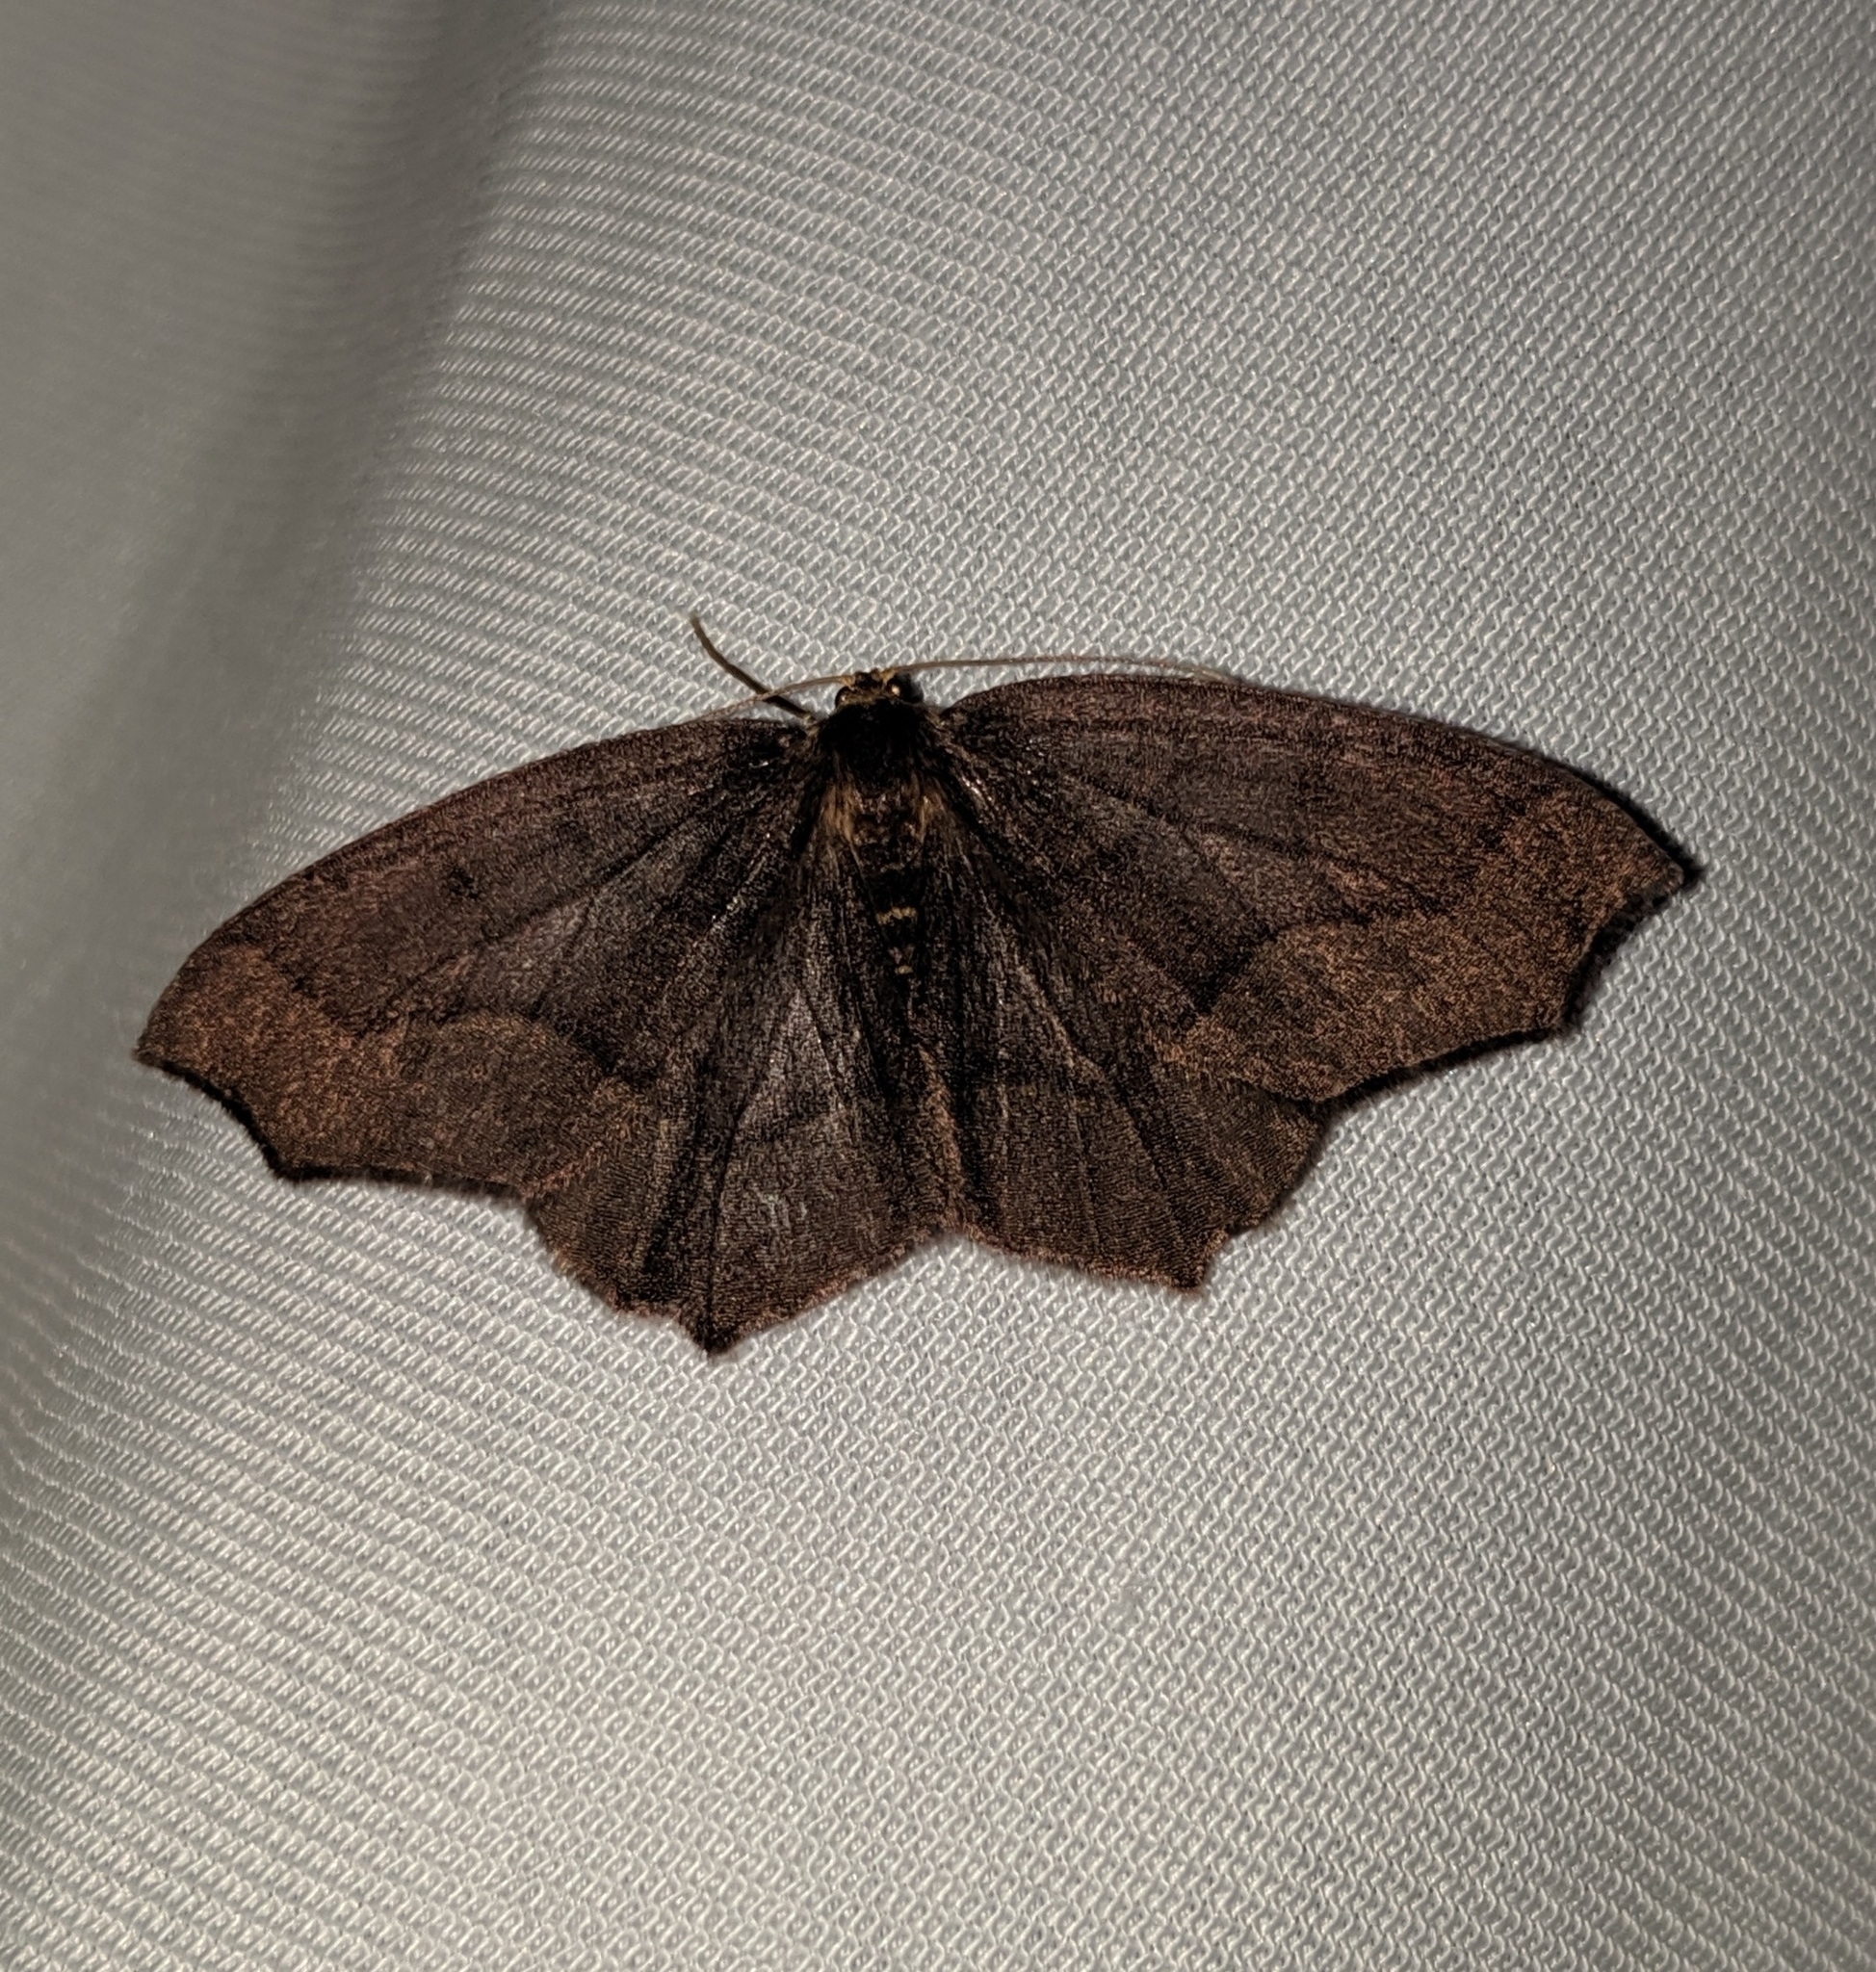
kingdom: Animalia
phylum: Arthropoda
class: Insecta
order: Lepidoptera
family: Geometridae
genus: Lambdina
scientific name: Lambdina fiscellaria
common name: Hemlock looper
